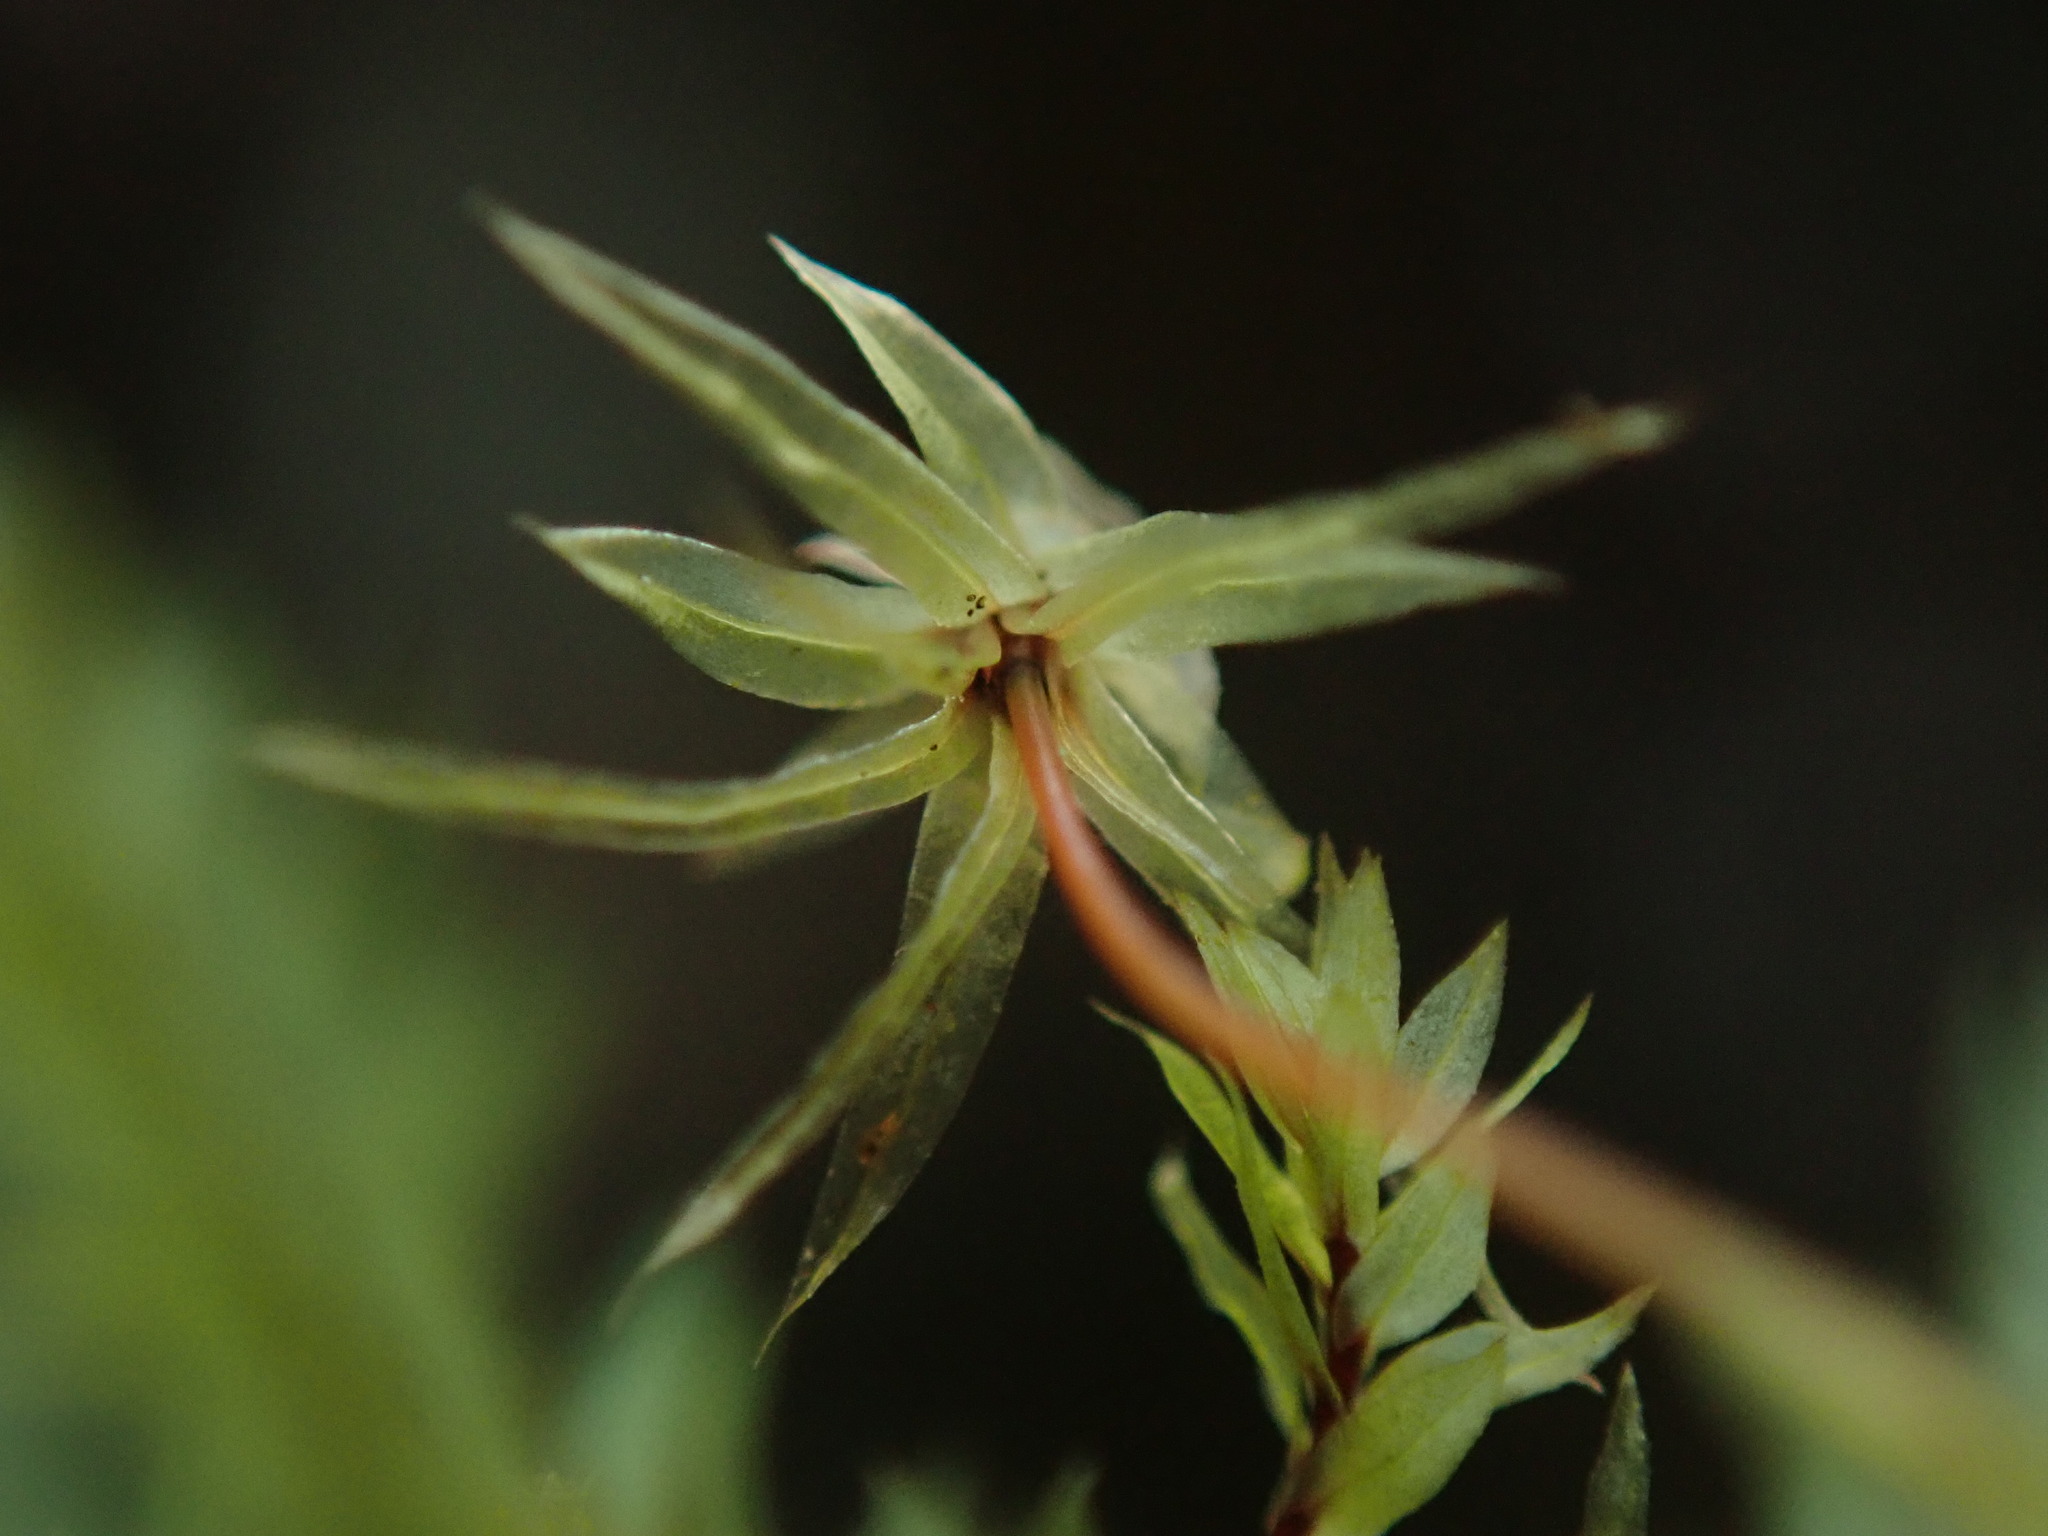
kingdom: Plantae
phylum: Bryophyta
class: Bryopsida
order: Bryales
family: Mniaceae
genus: Pohlia
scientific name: Pohlia cruda
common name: Opal nodding moss
